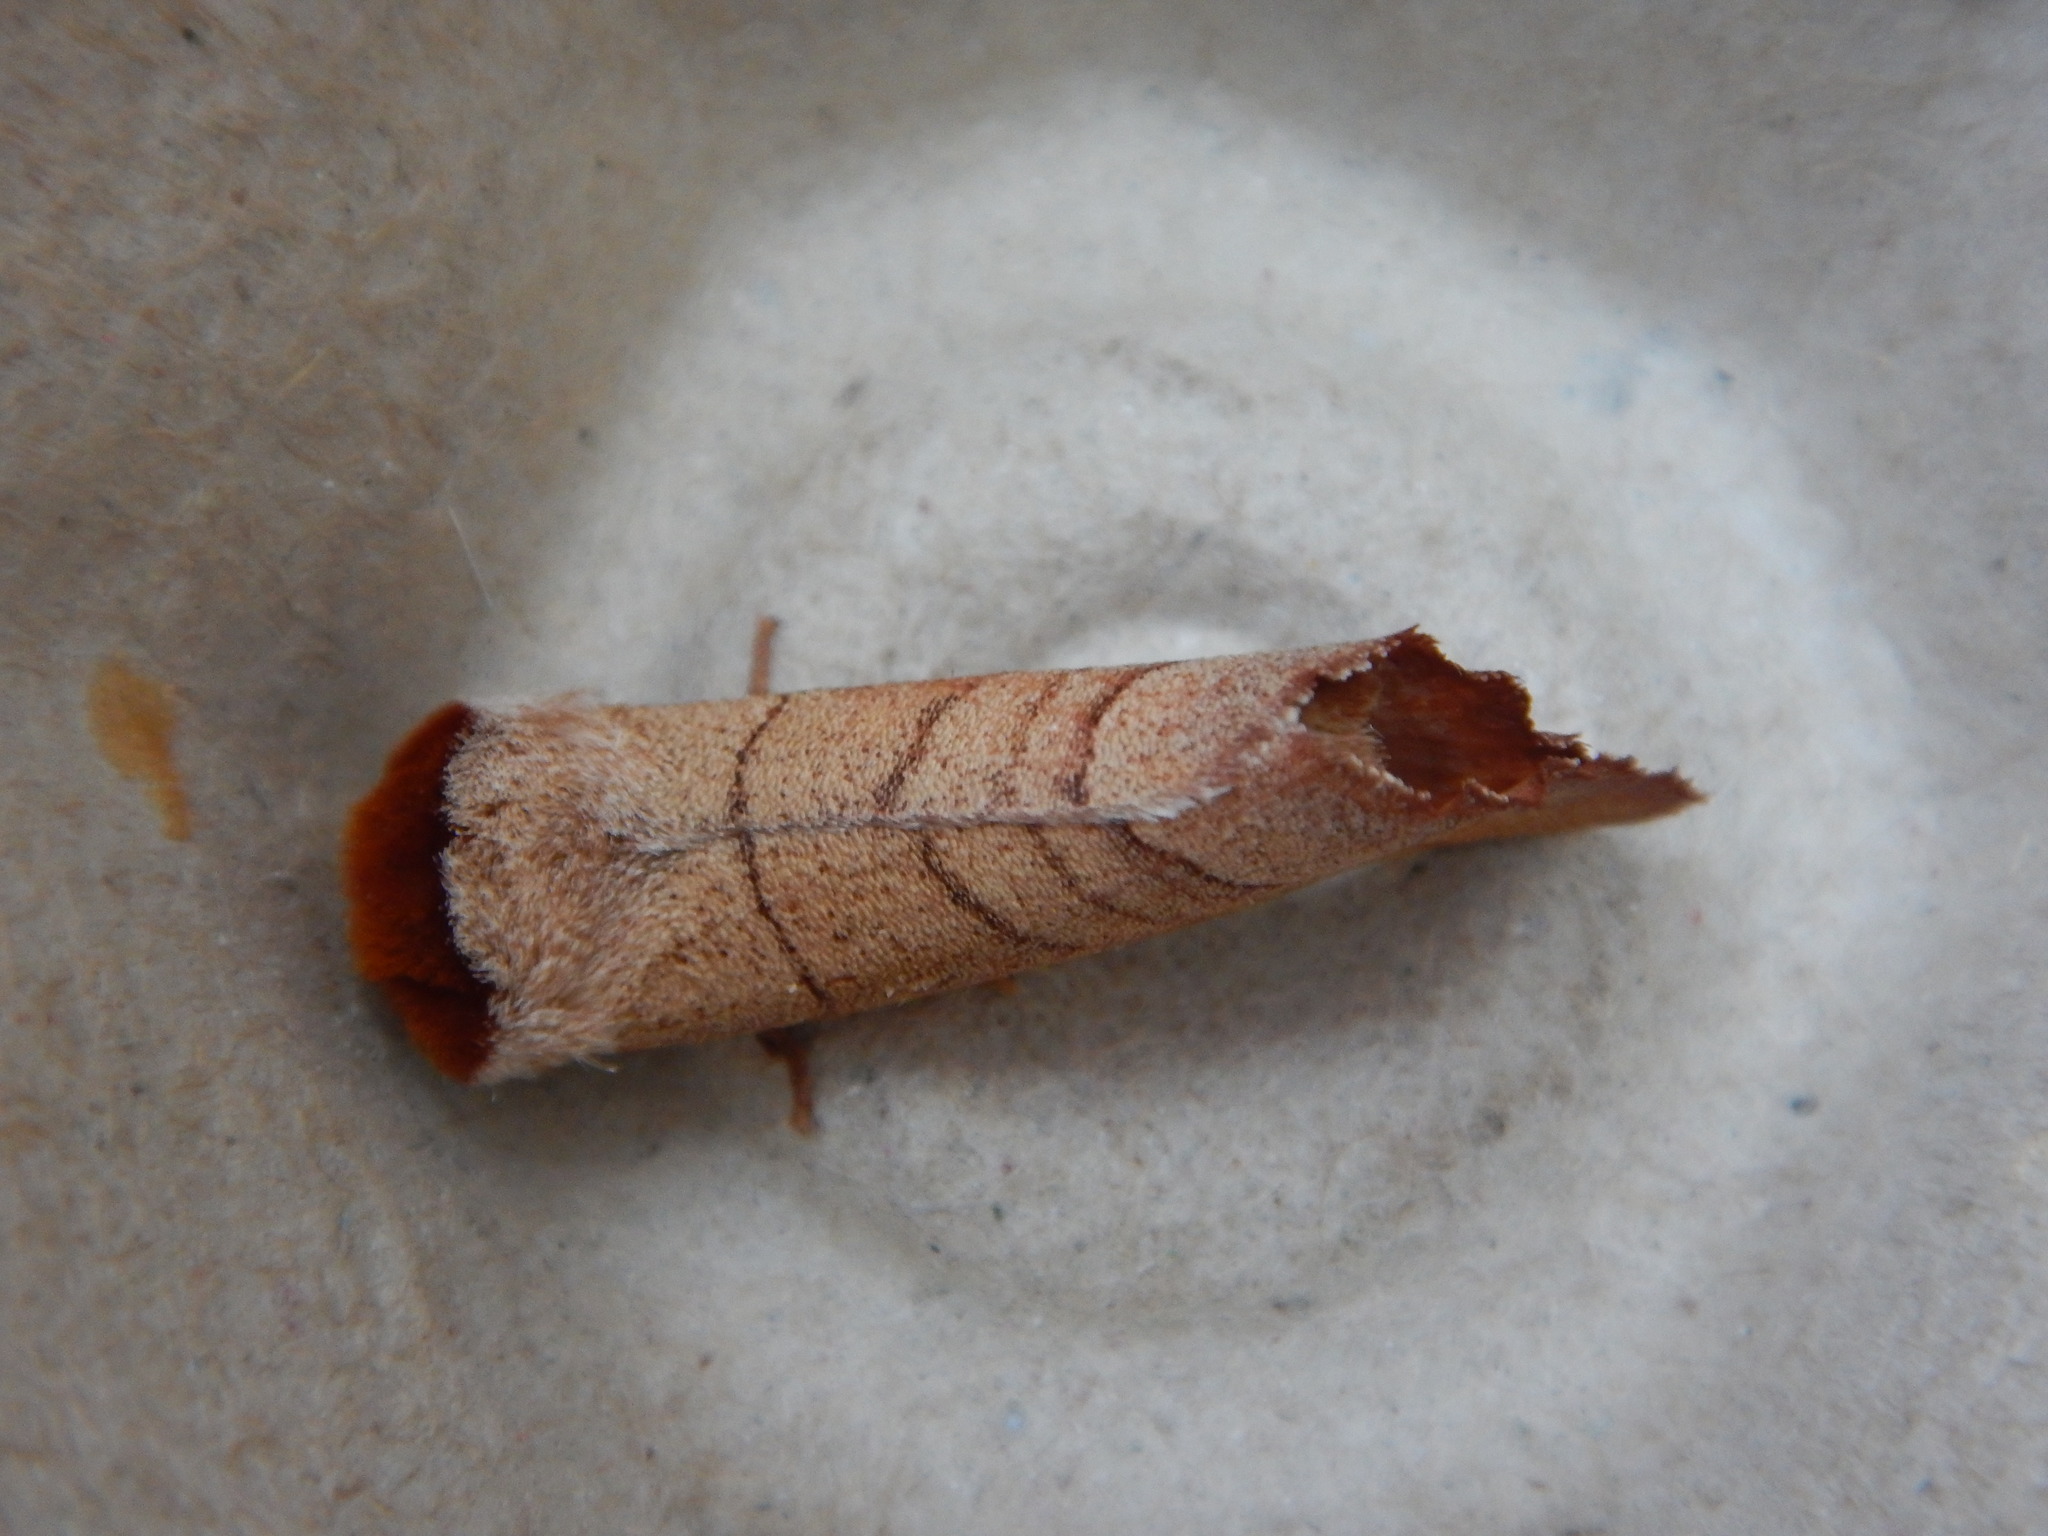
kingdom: Animalia
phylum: Arthropoda
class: Insecta
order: Lepidoptera
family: Notodontidae
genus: Datana
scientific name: Datana ministra
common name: Yellow-necked caterpillar moth
